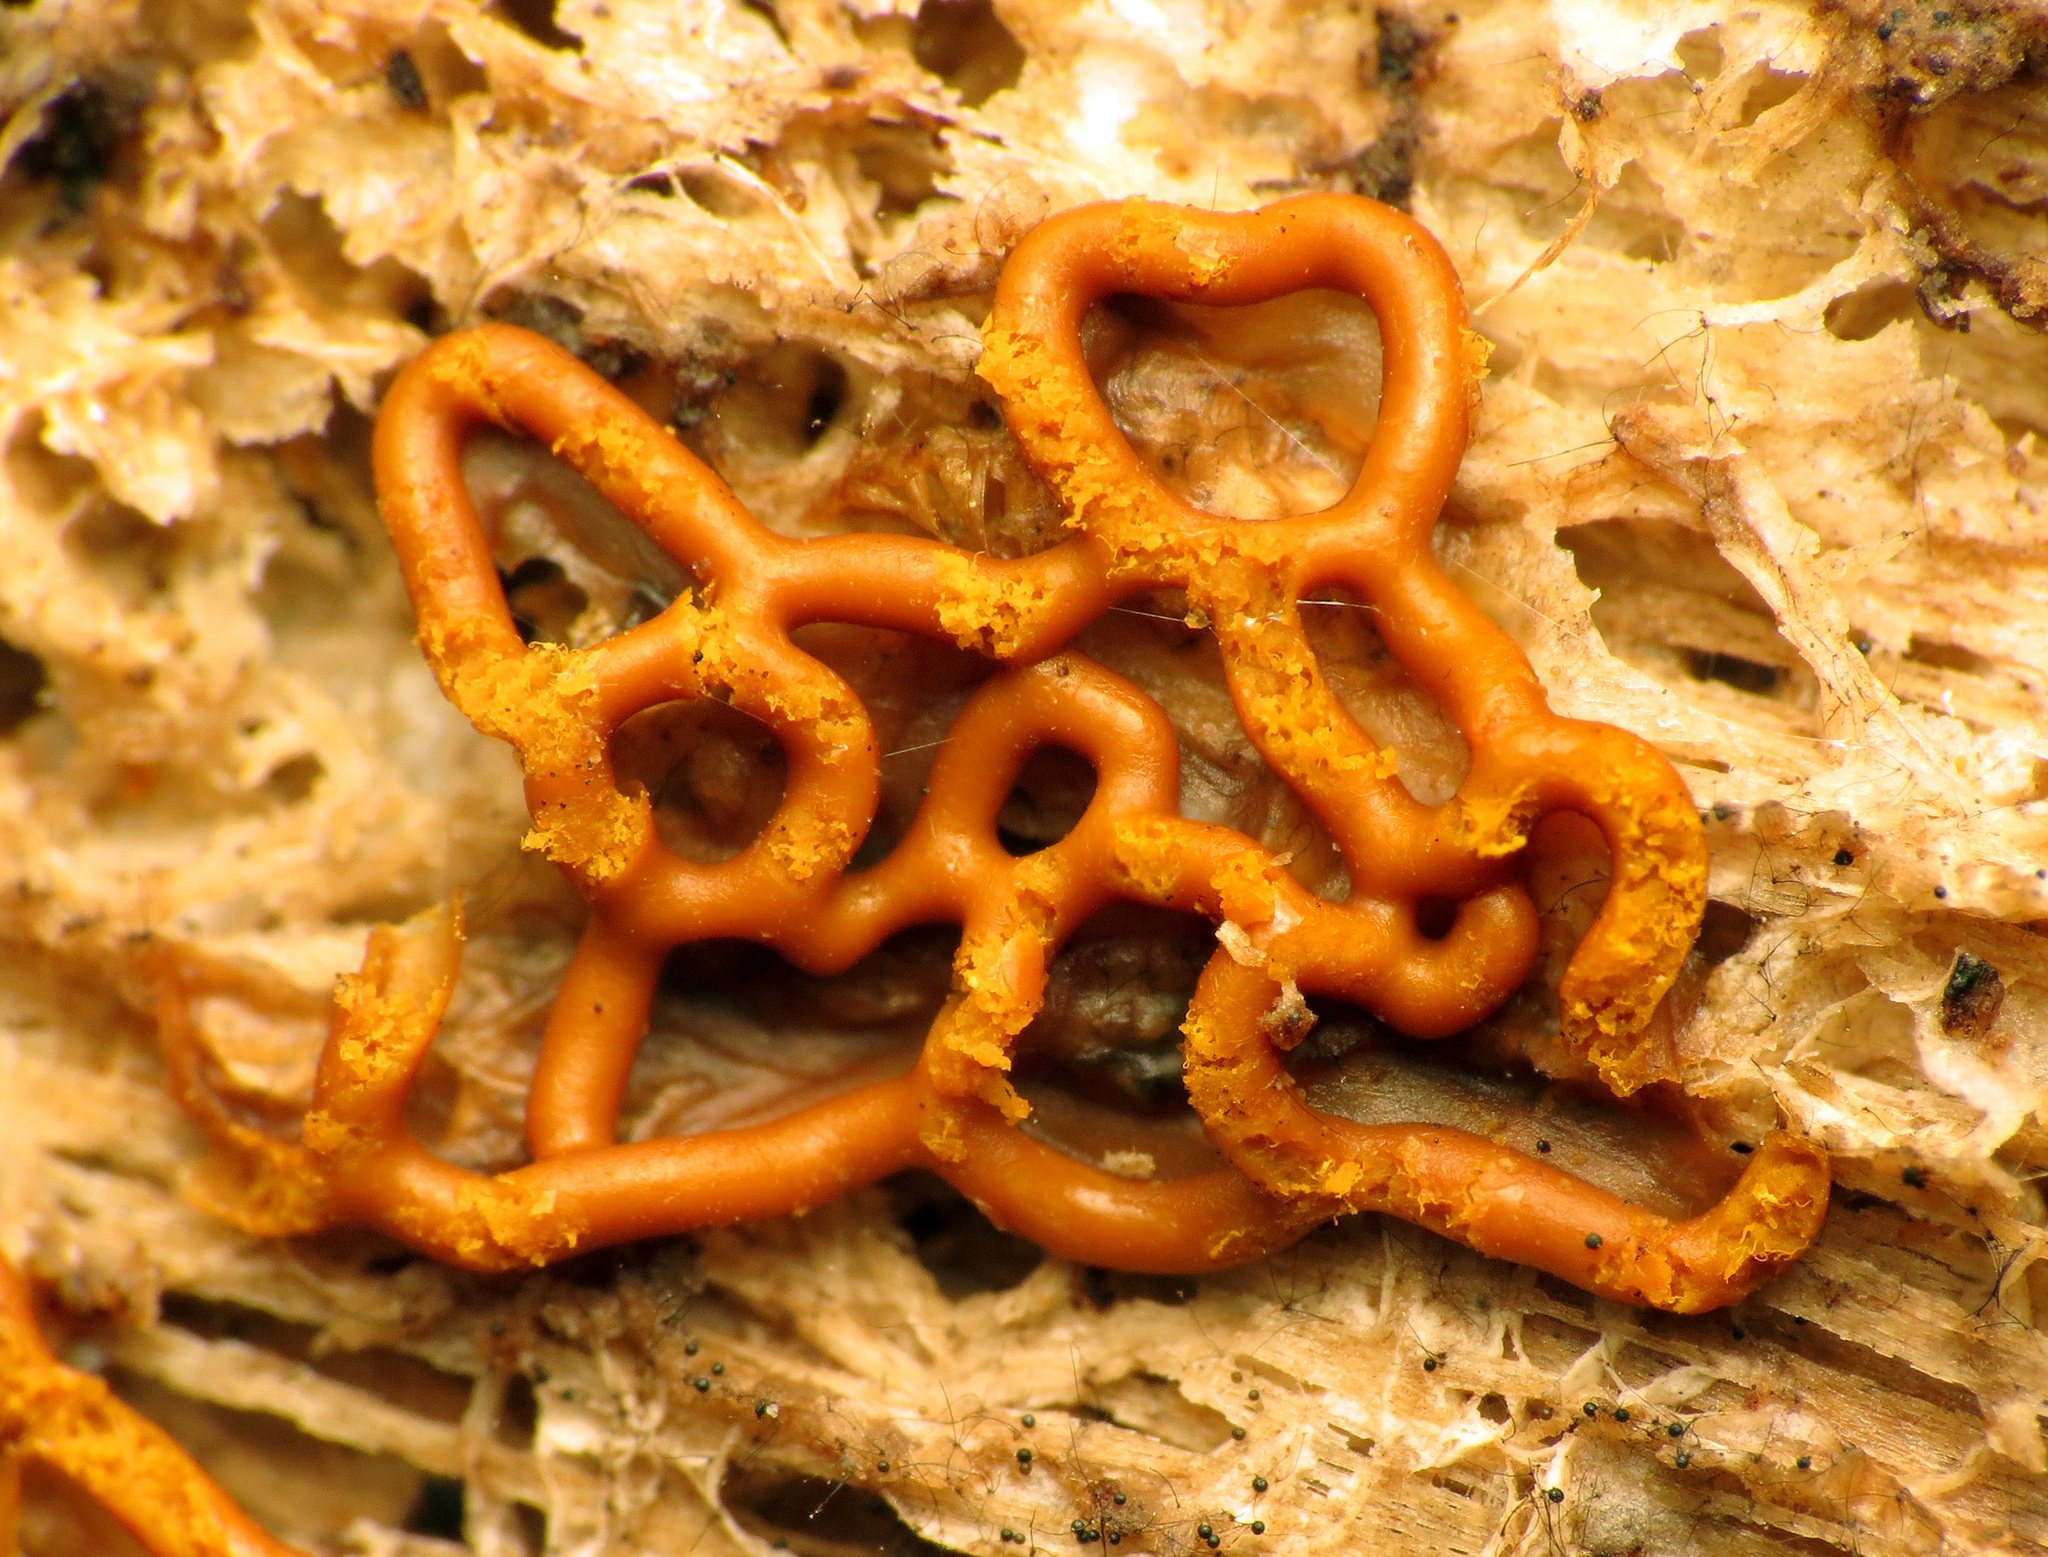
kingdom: Protozoa
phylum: Mycetozoa
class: Myxomycetes
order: Trichiales
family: Arcyriaceae
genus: Hemitrichia
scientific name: Hemitrichia serpula
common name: Pretzel slime mold
